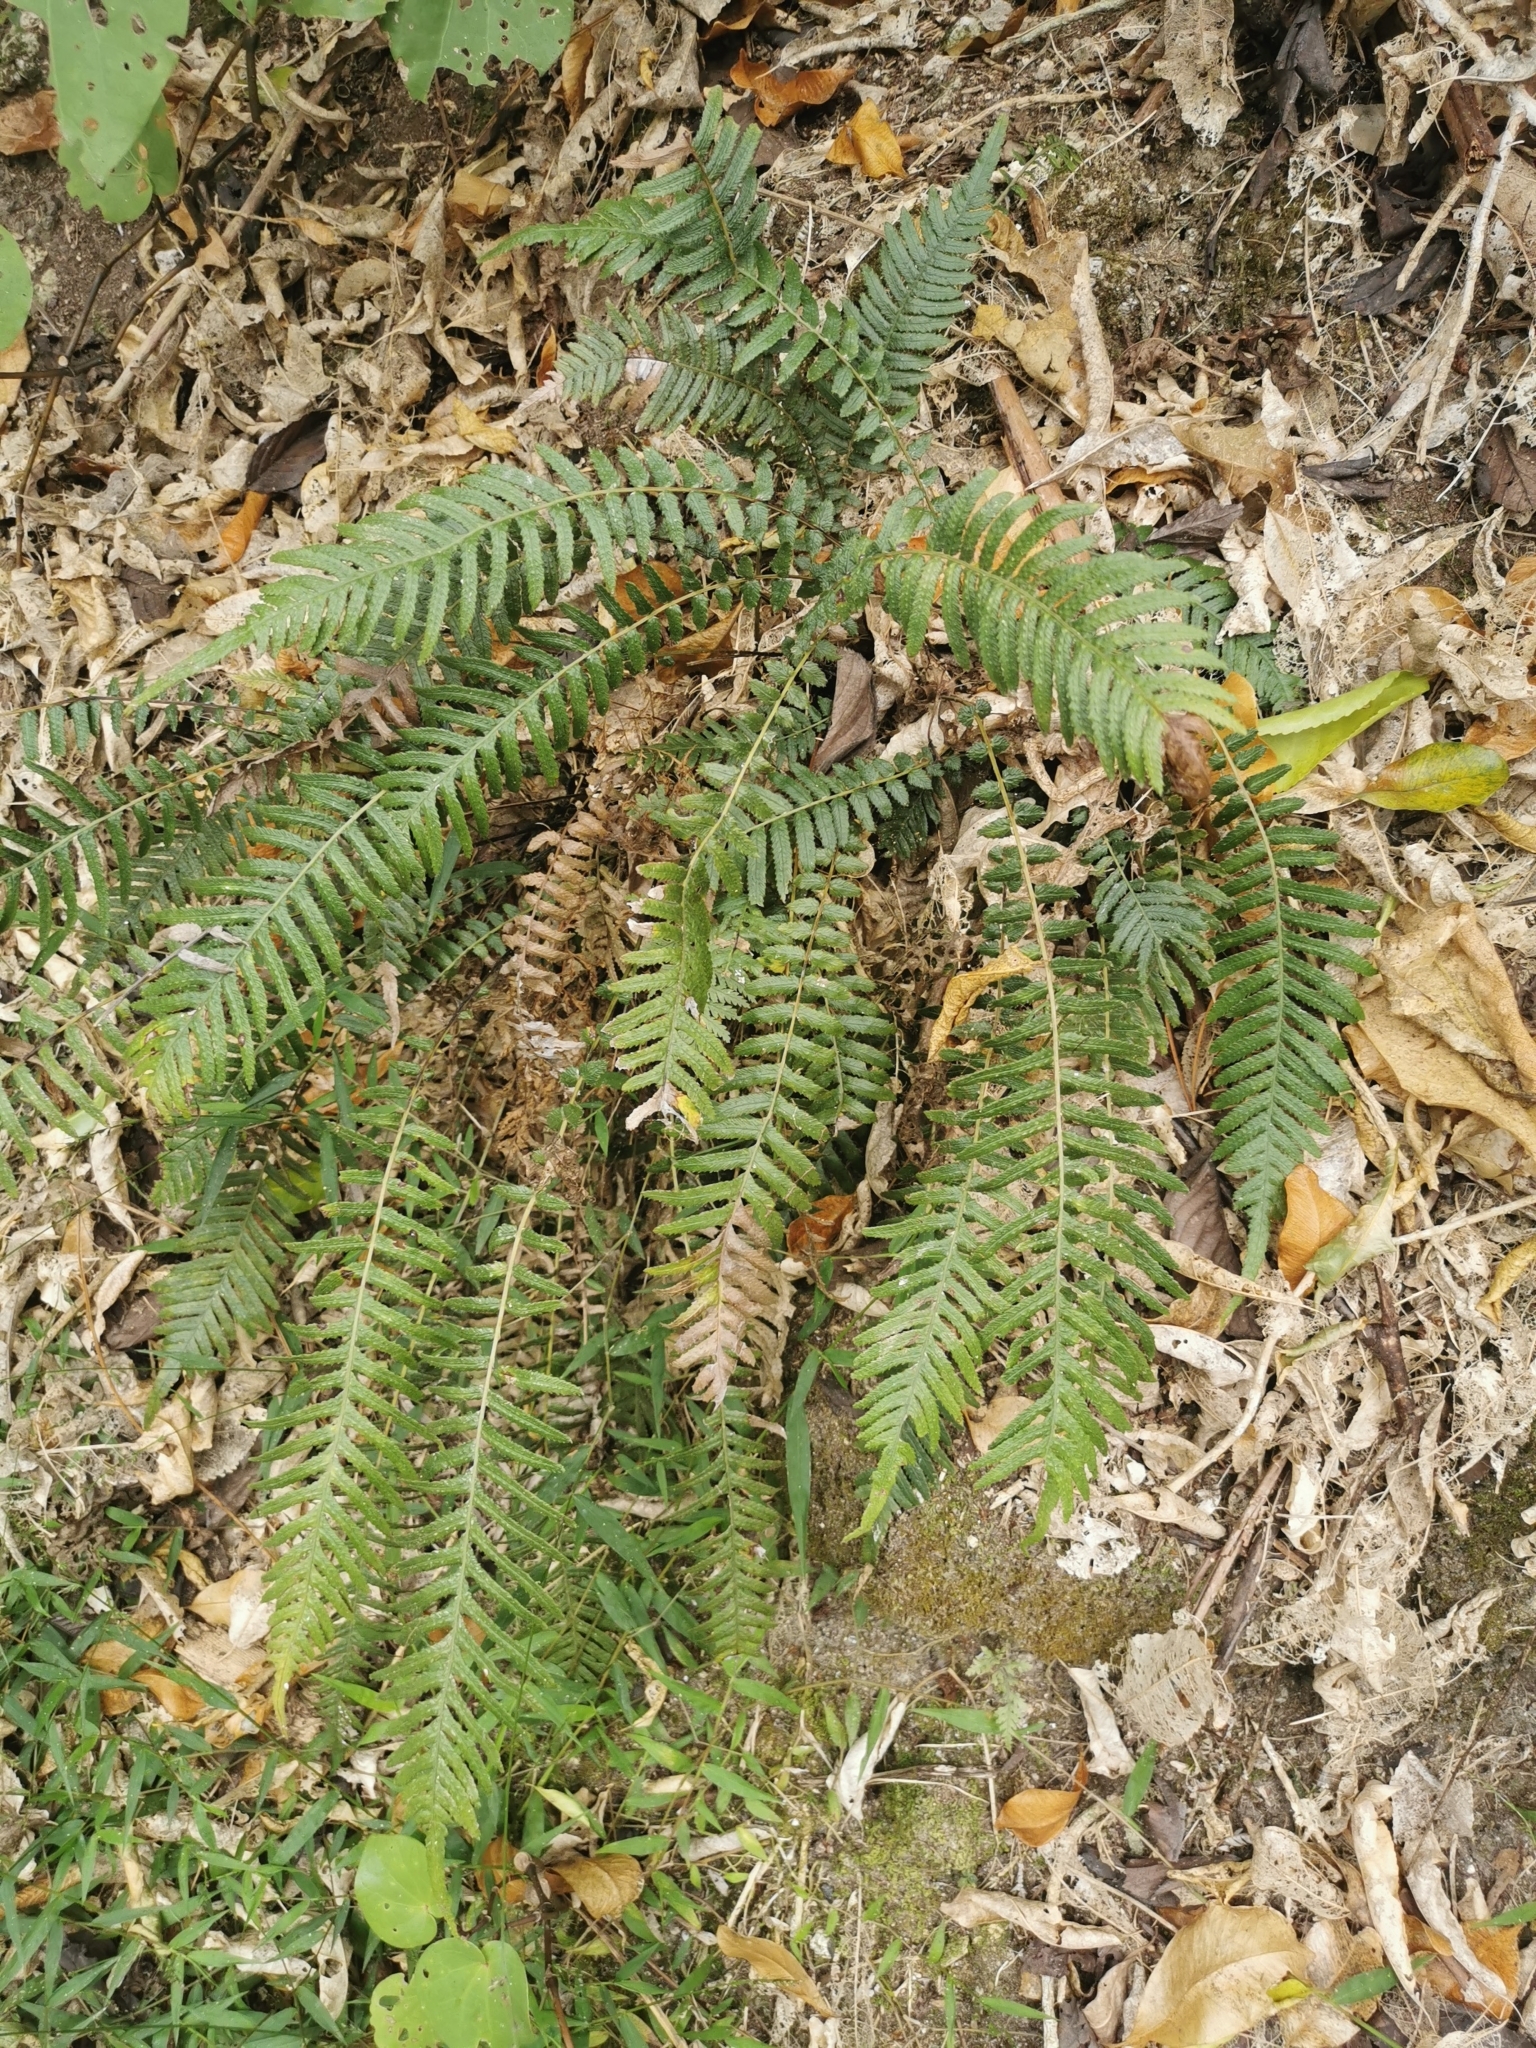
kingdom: Plantae
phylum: Tracheophyta
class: Polypodiopsida
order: Polypodiales
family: Blechnaceae
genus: Doodia
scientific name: Doodia australis
